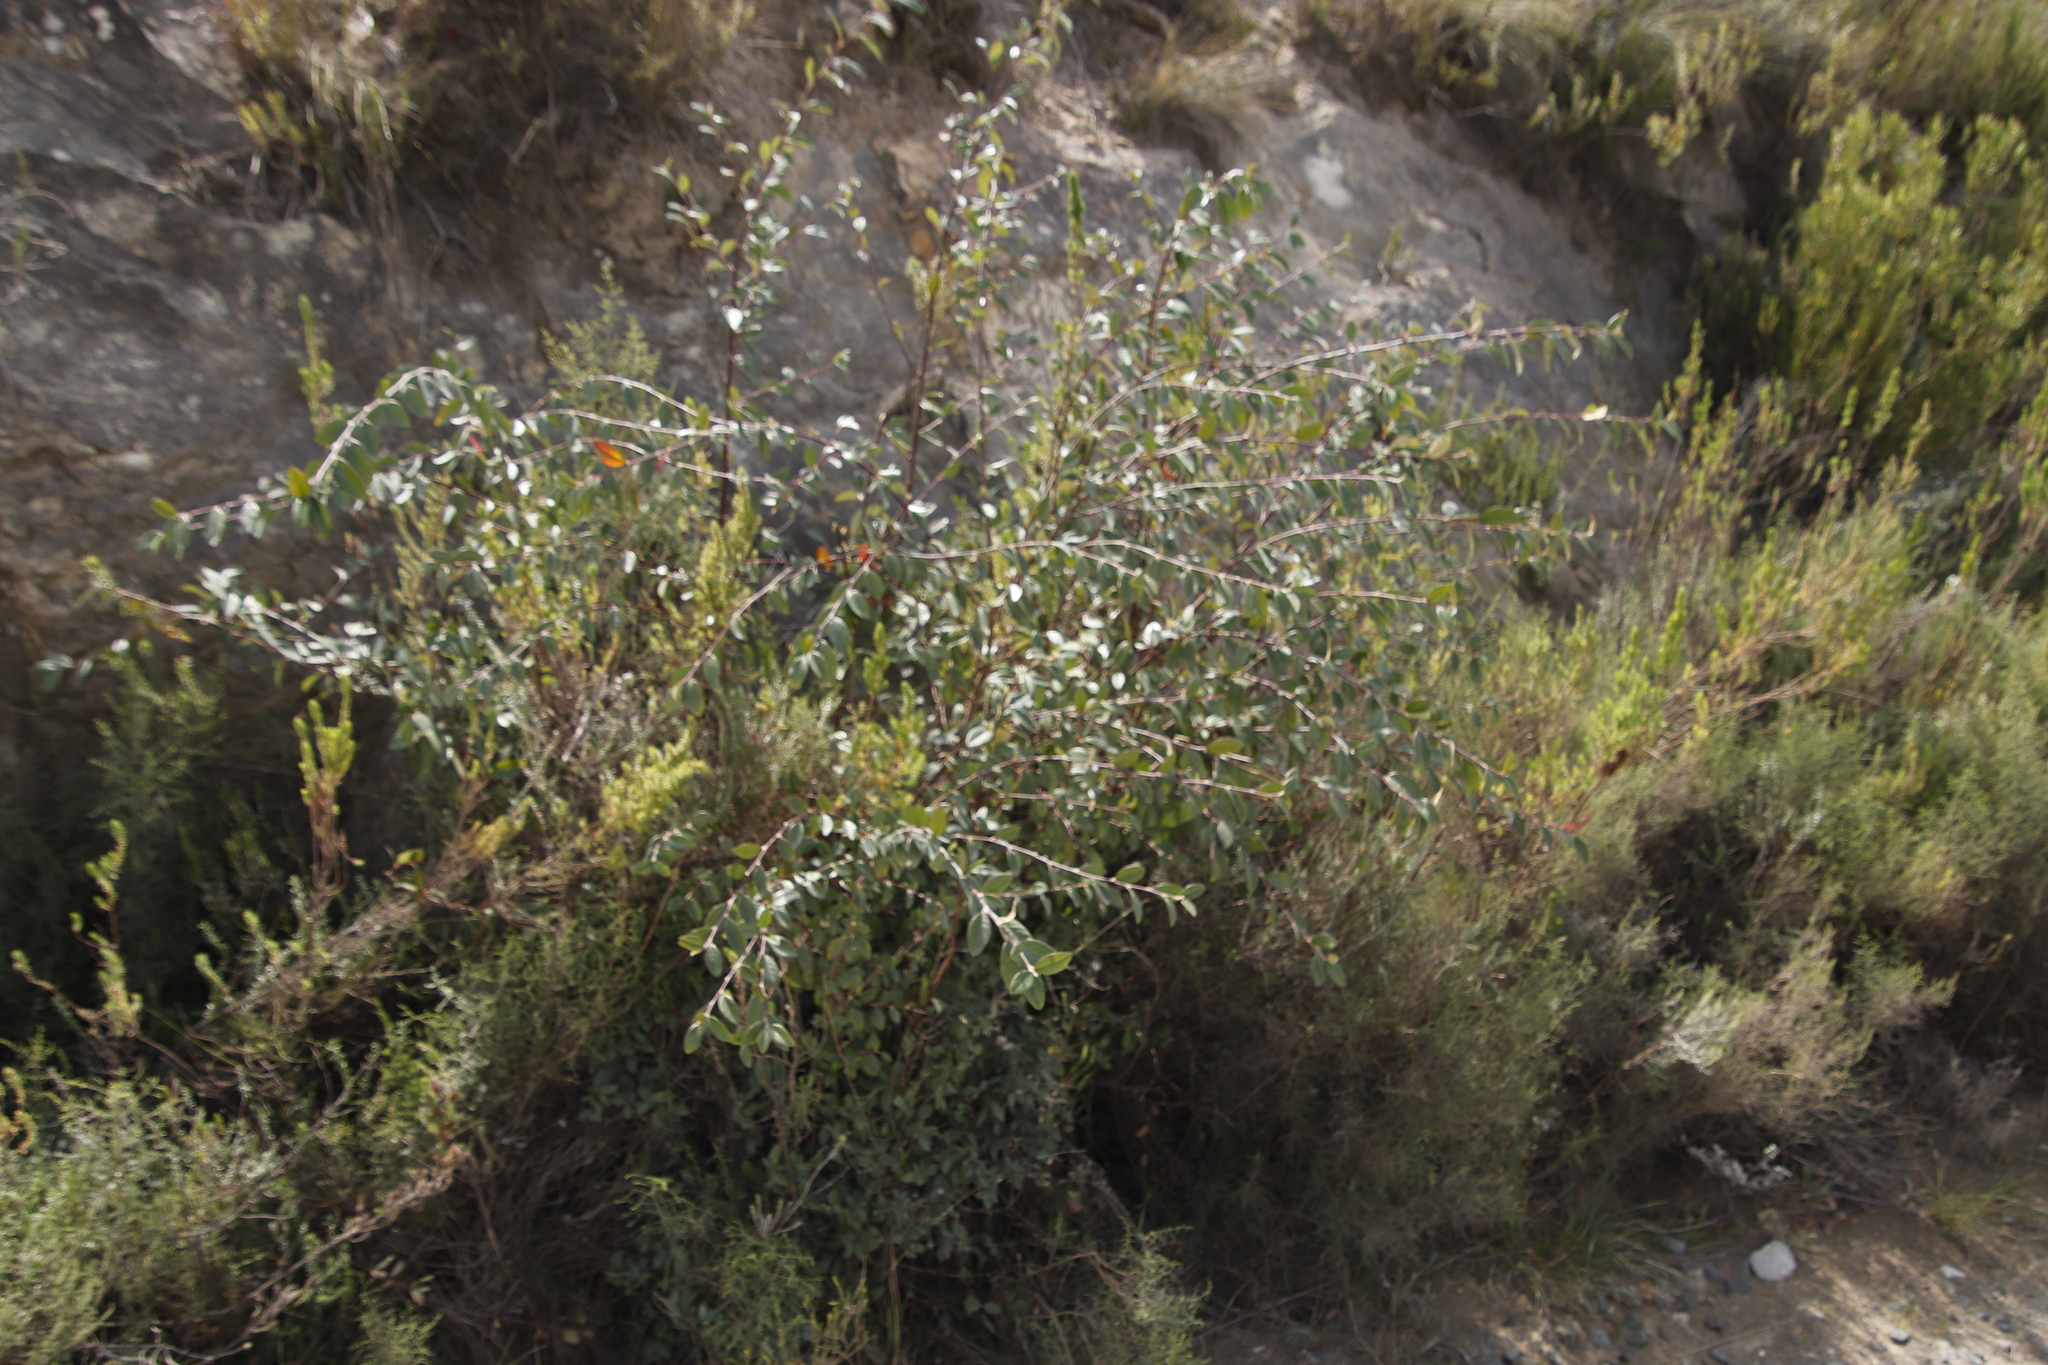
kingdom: Plantae
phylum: Tracheophyta
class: Magnoliopsida
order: Rosales
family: Rosaceae
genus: Cotoneaster
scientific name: Cotoneaster glaucophyllus
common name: Glaucous cotoneaster
